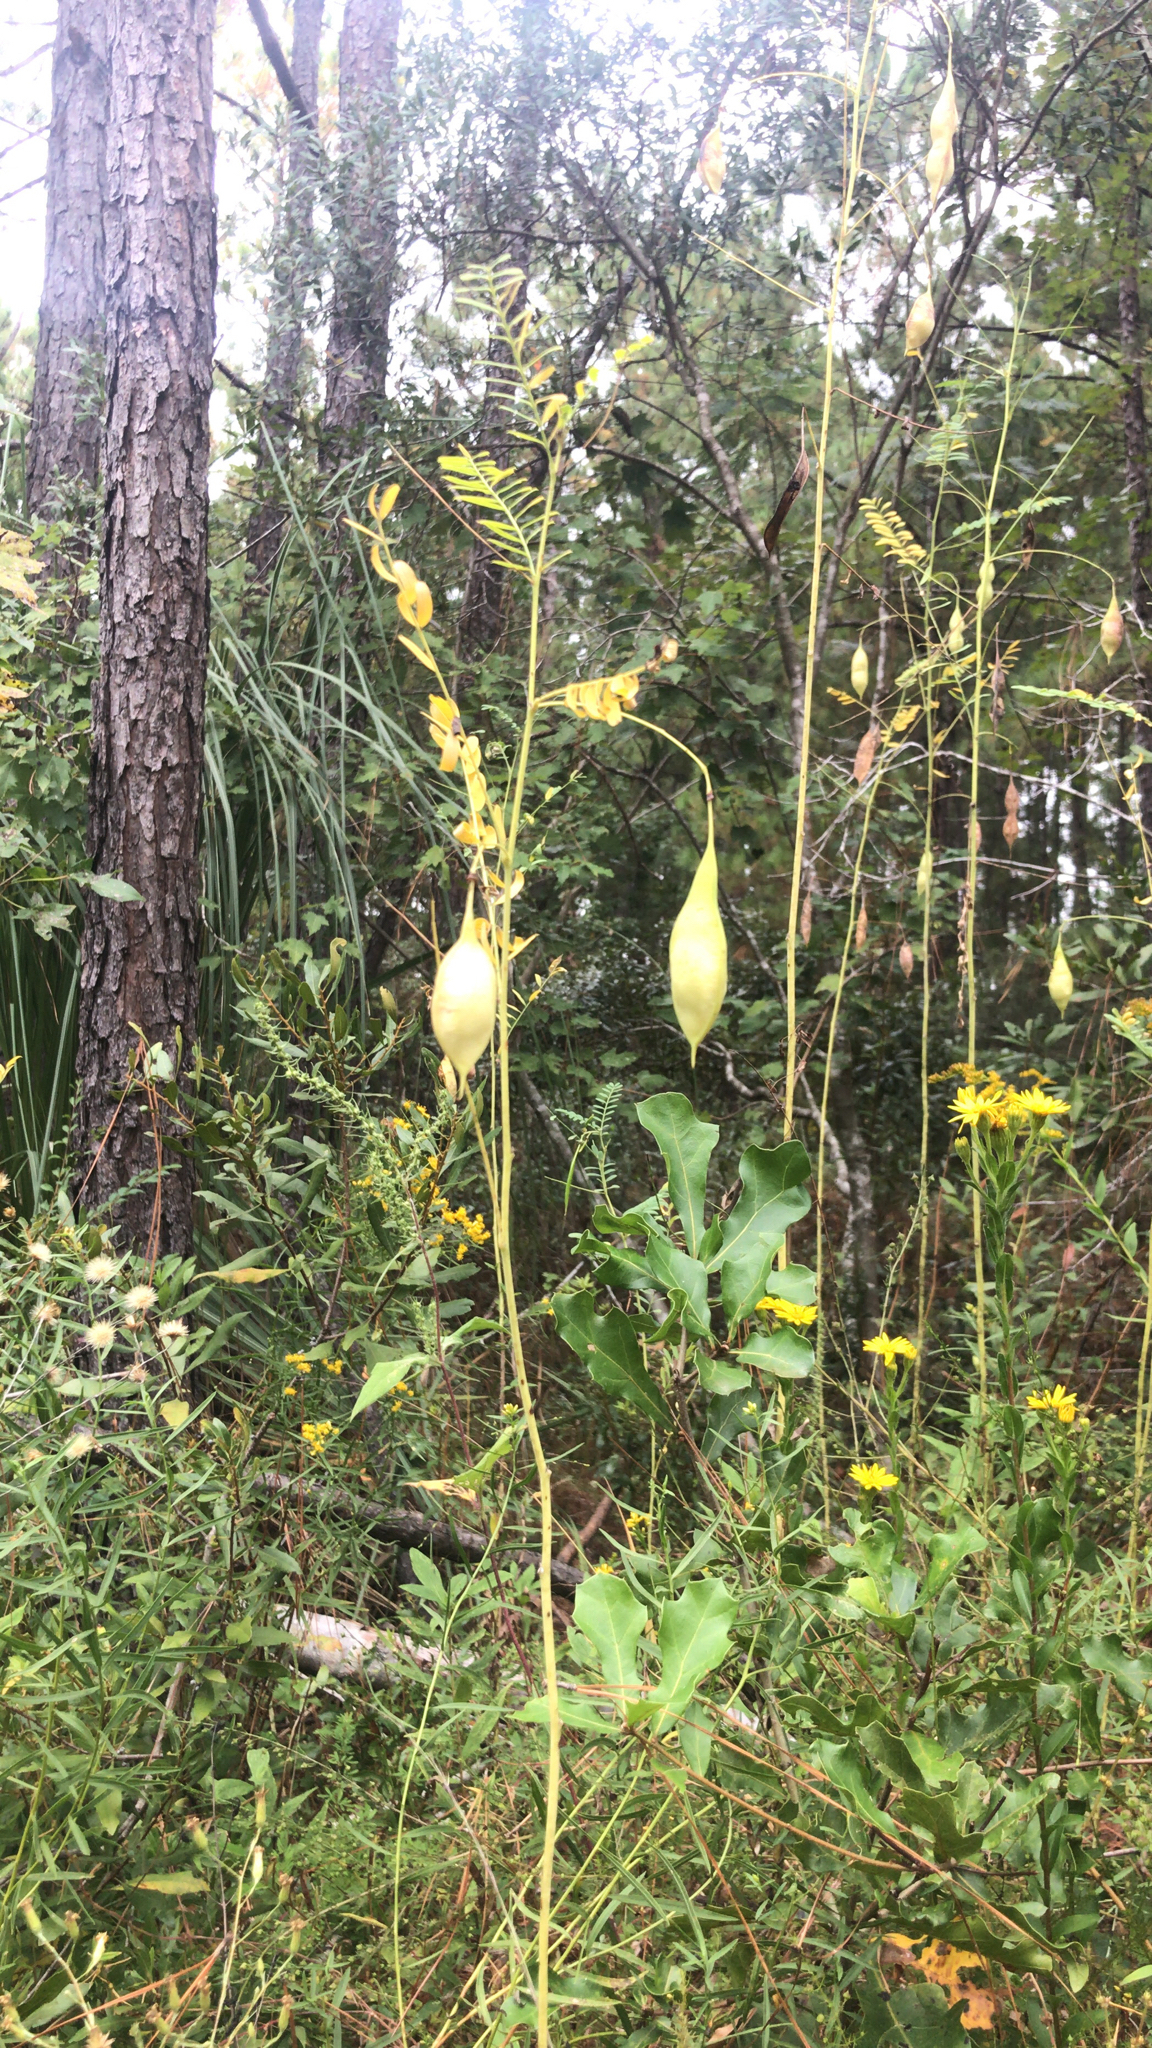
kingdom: Plantae
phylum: Tracheophyta
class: Magnoliopsida
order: Fabales
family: Fabaceae
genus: Sesbania
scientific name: Sesbania vesicaria
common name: Bagpod
